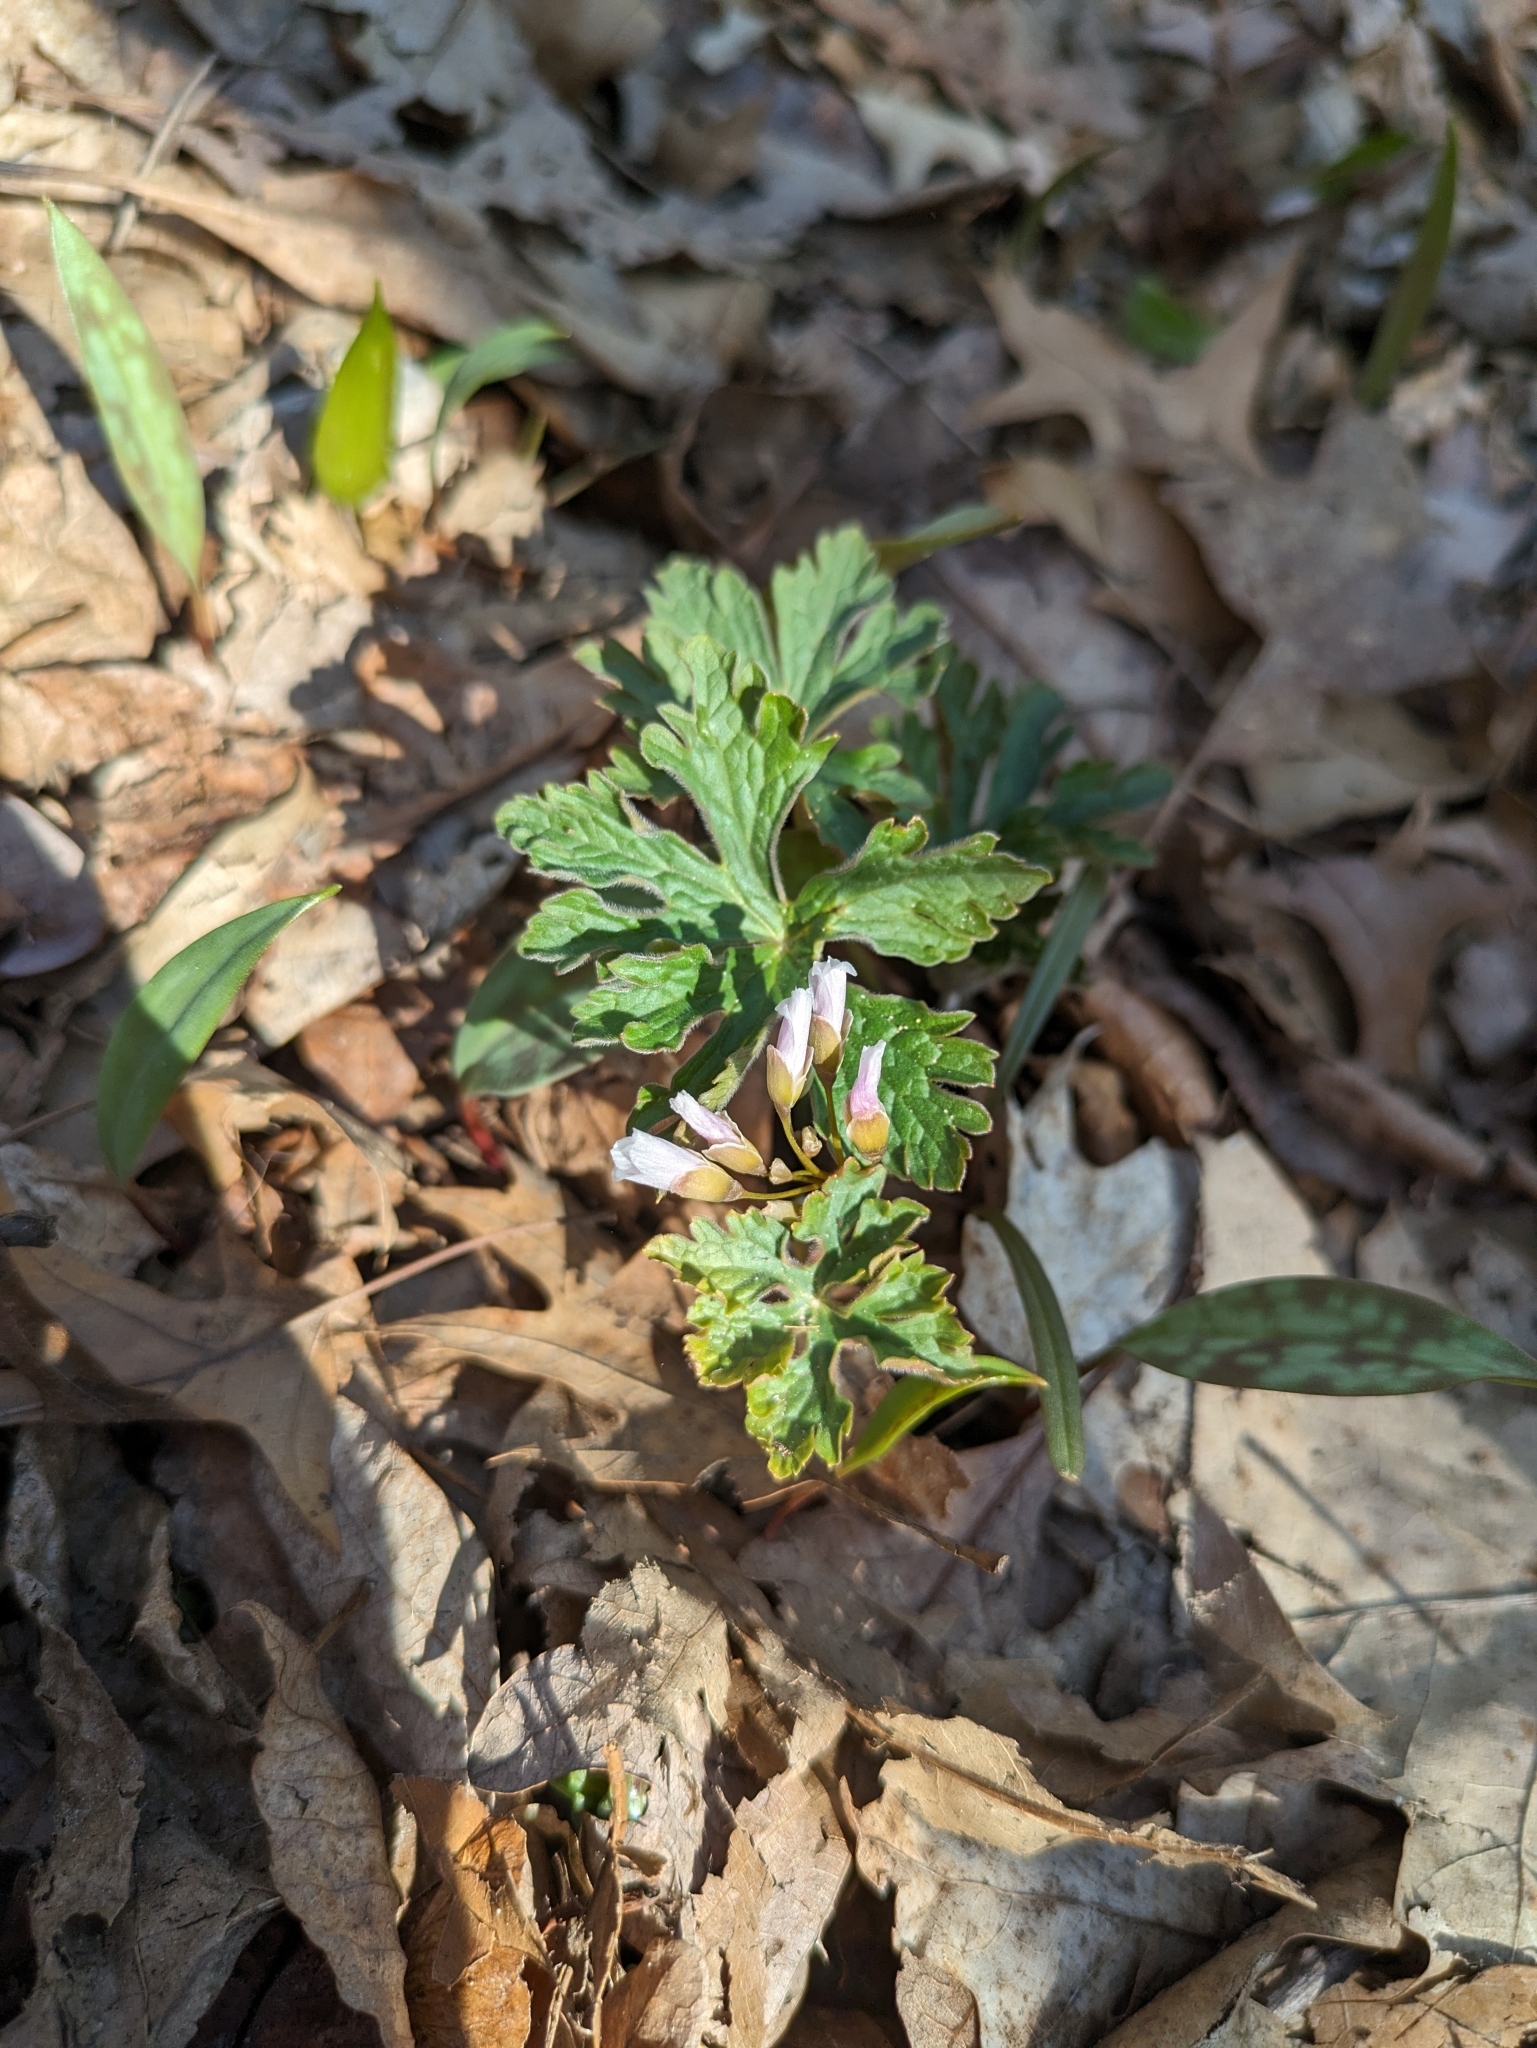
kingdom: Plantae
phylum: Tracheophyta
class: Magnoliopsida
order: Geraniales
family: Geraniaceae
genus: Geranium
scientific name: Geranium maculatum
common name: Spotted geranium
